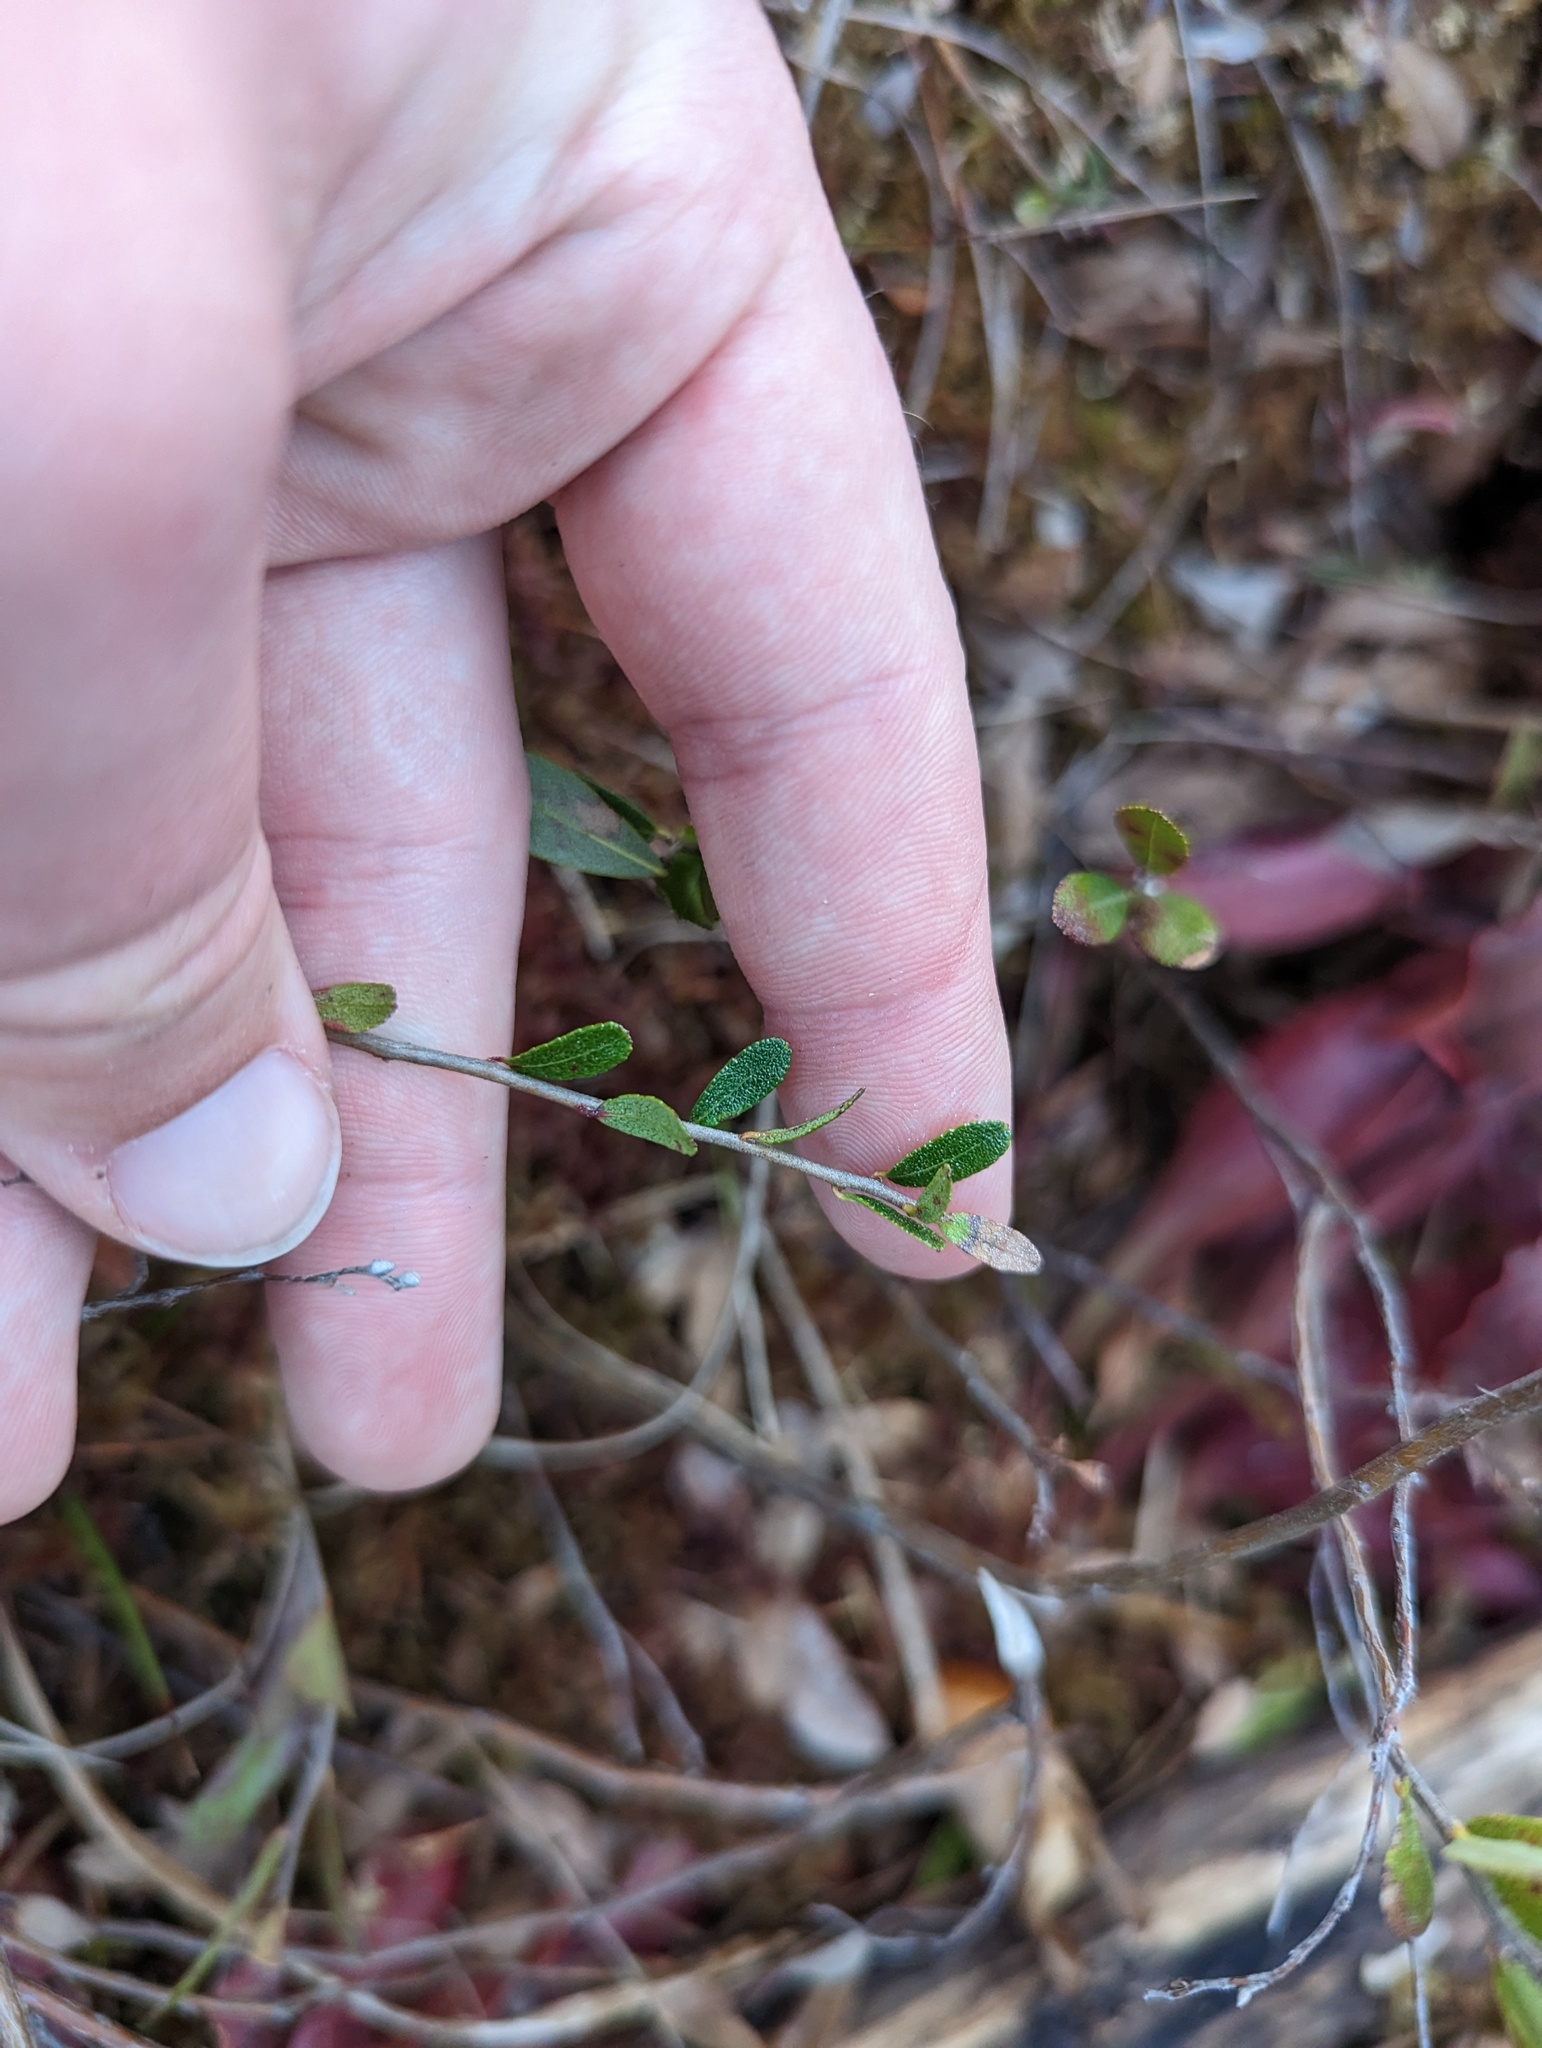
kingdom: Plantae
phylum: Tracheophyta
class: Magnoliopsida
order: Ericales
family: Ericaceae
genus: Chamaedaphne
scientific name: Chamaedaphne calyculata
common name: Leatherleaf
